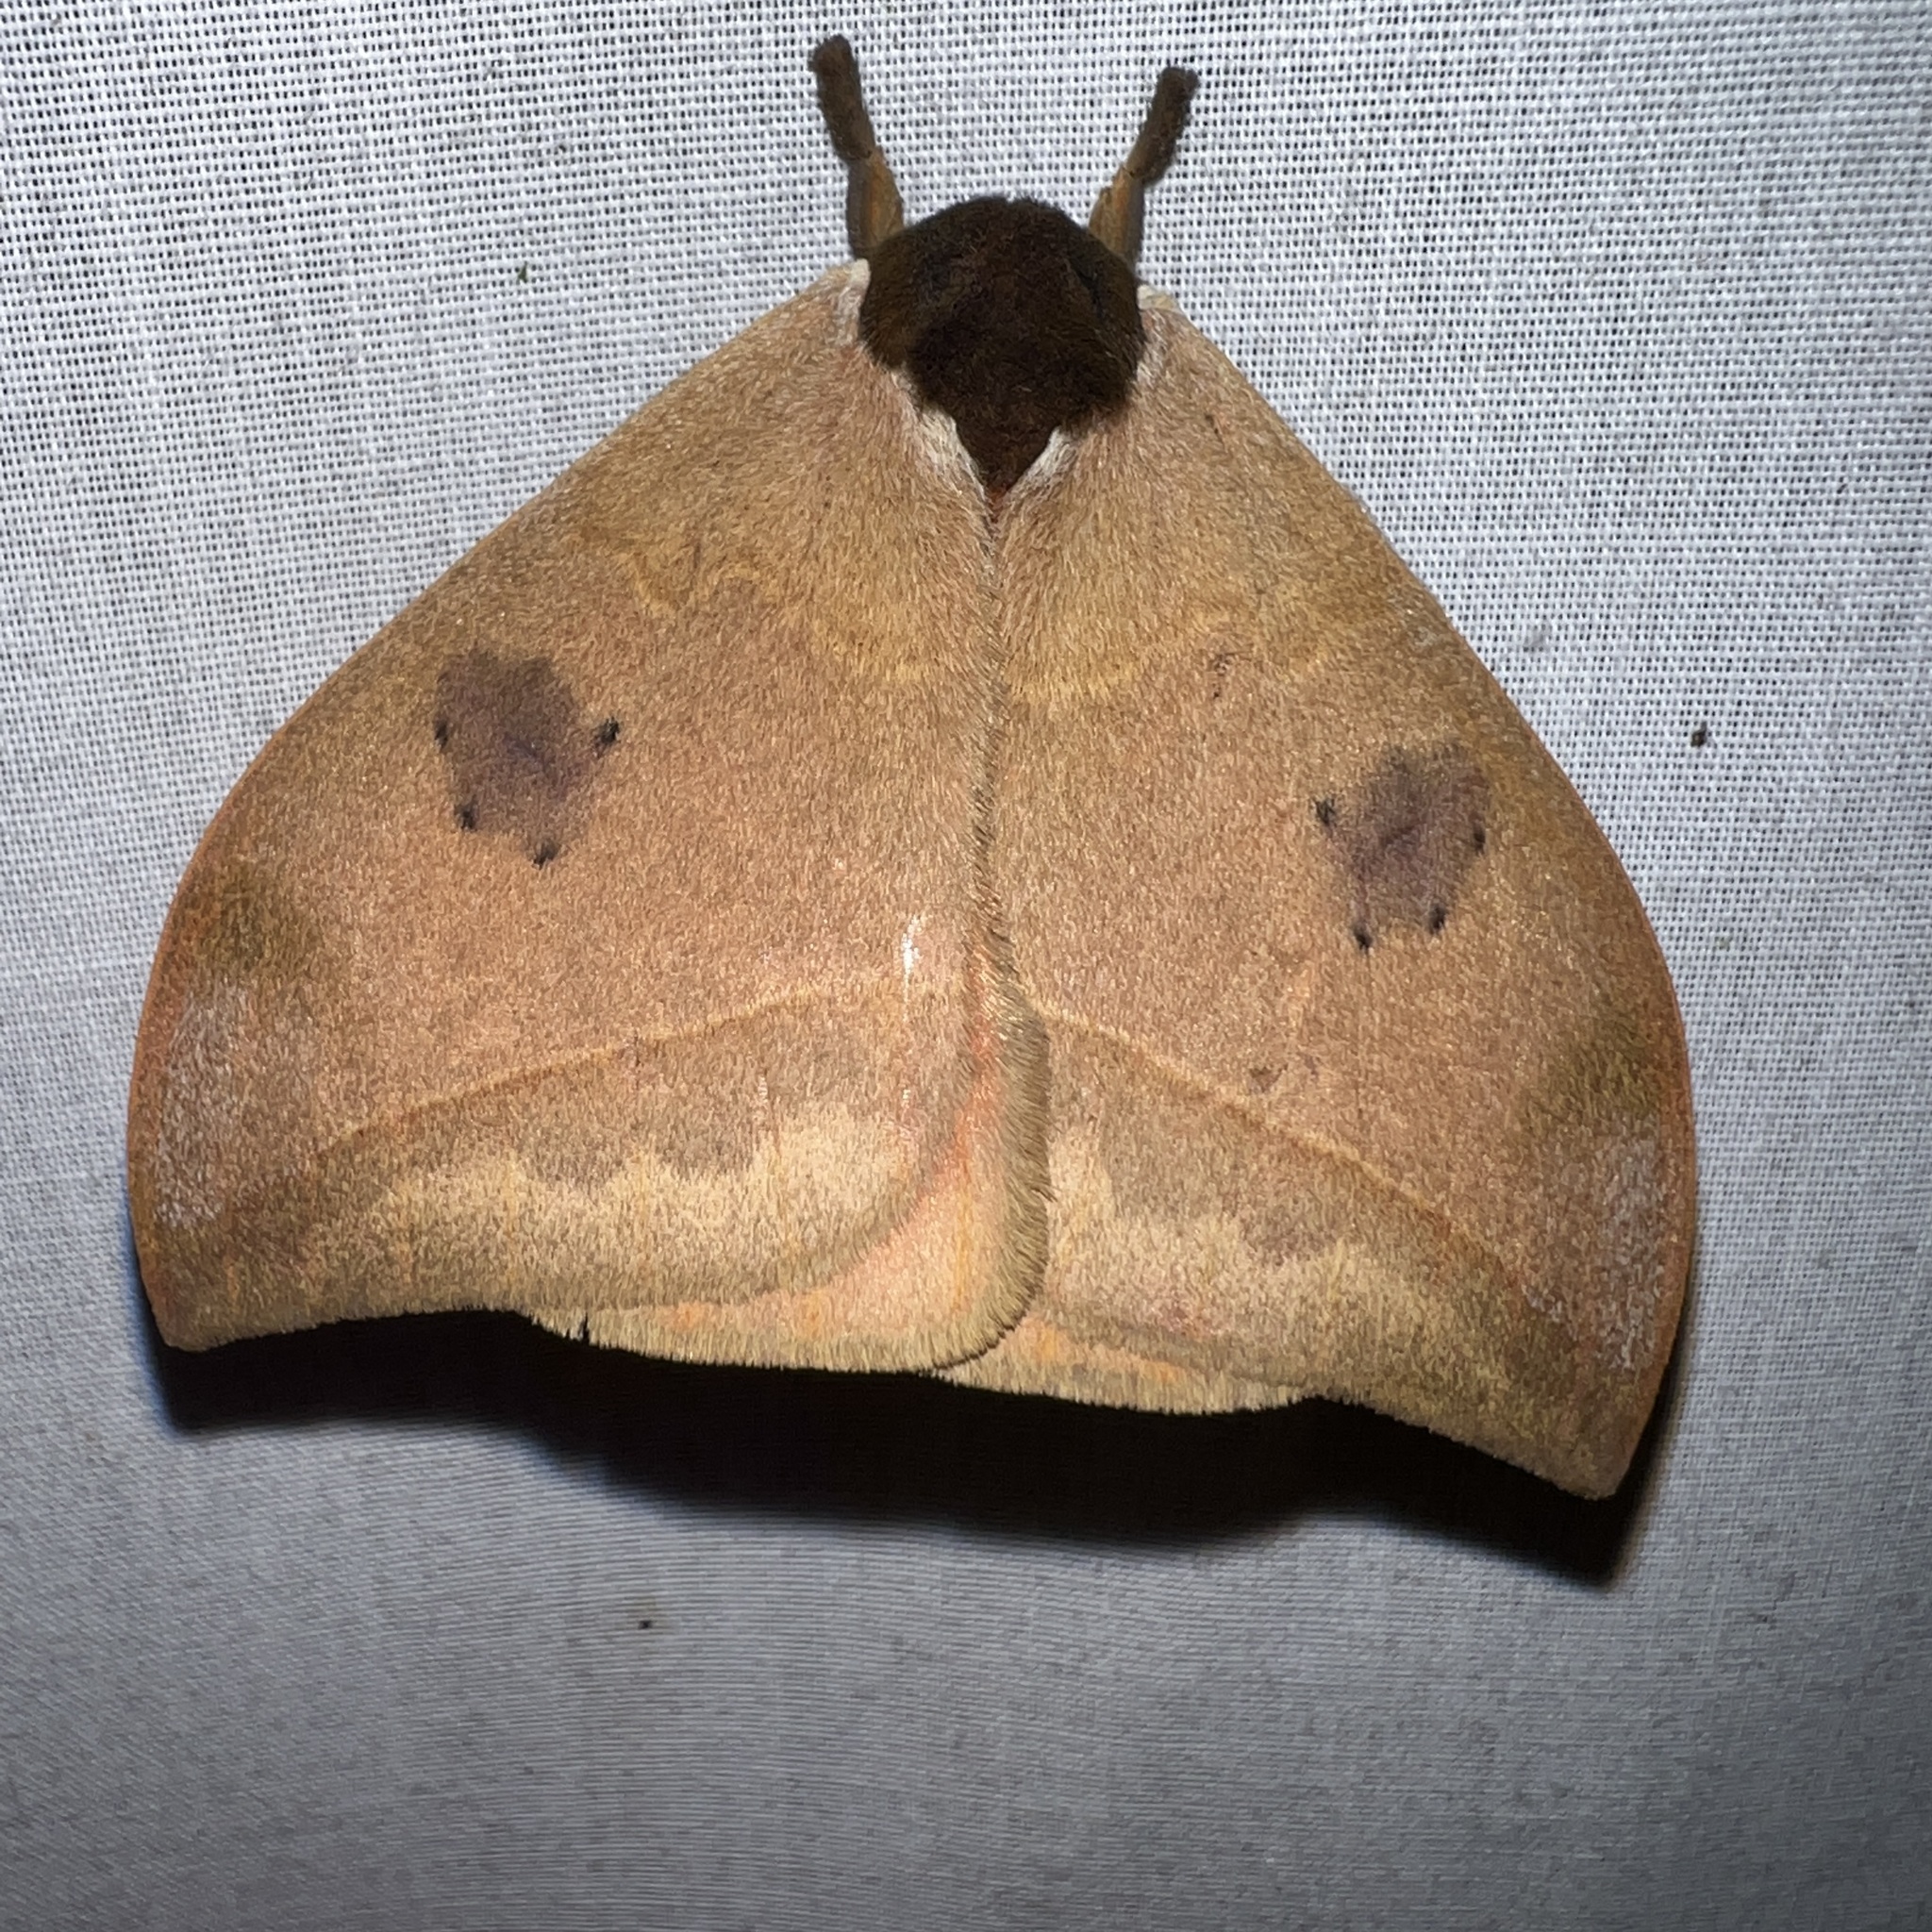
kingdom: Animalia
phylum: Arthropoda
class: Insecta
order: Lepidoptera
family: Saturniidae
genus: Automeris
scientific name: Automeris belti
